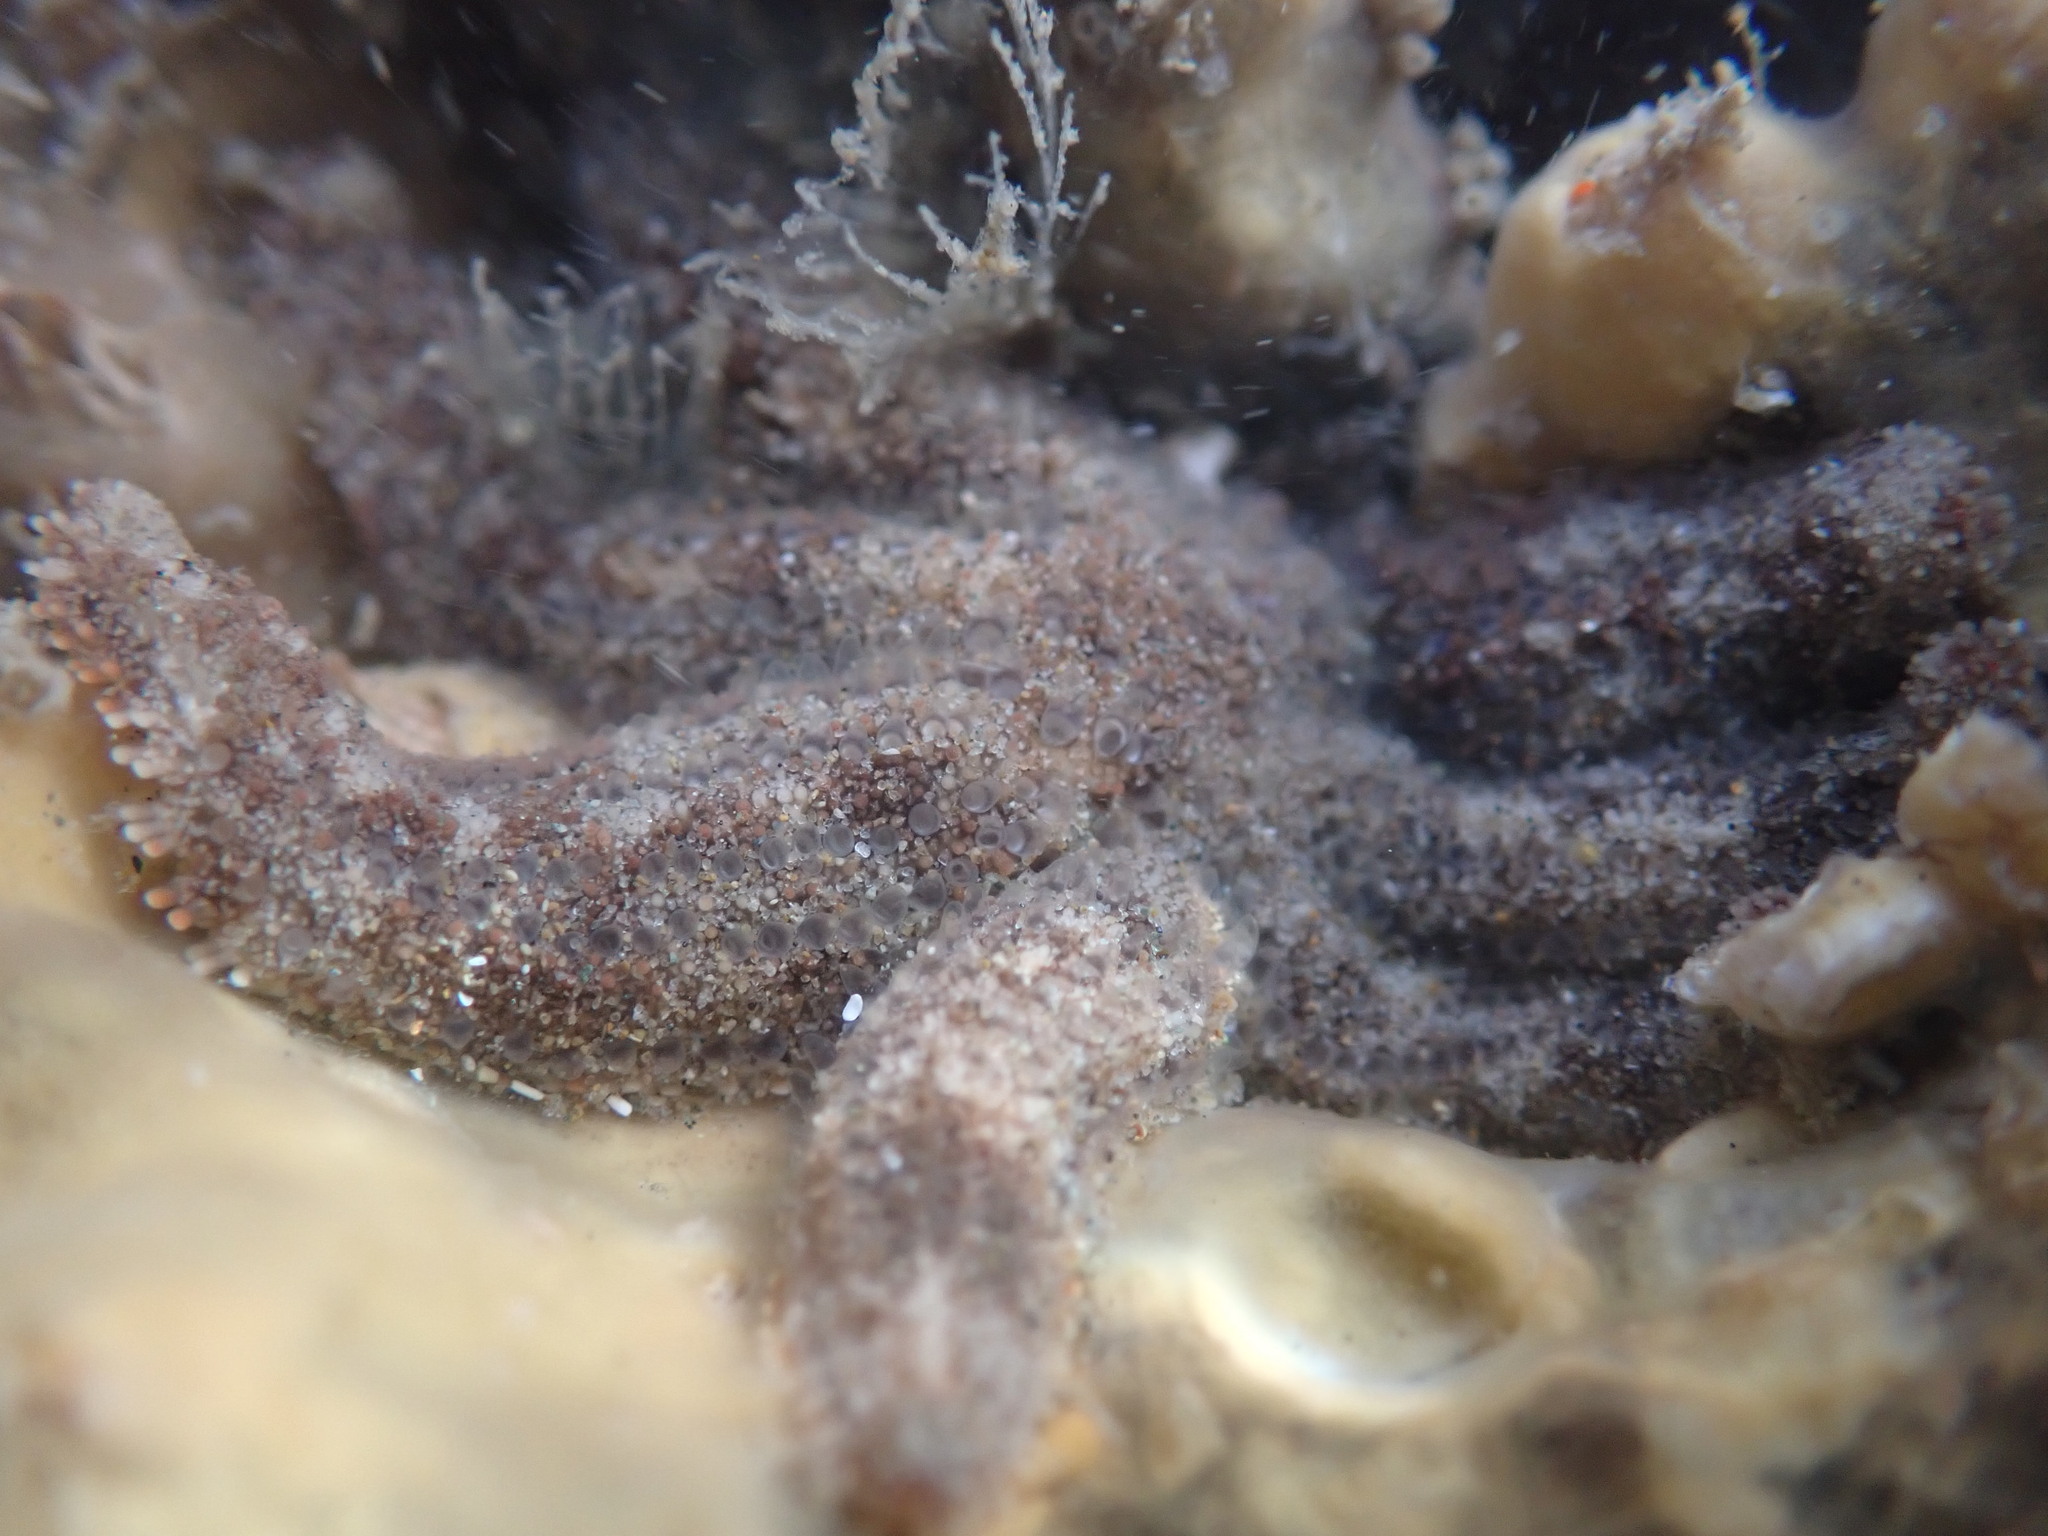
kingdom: Animalia
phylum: Echinodermata
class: Asteroidea
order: Forcipulatida
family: Stichasteridae
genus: Allostichaster
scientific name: Allostichaster polyplax
